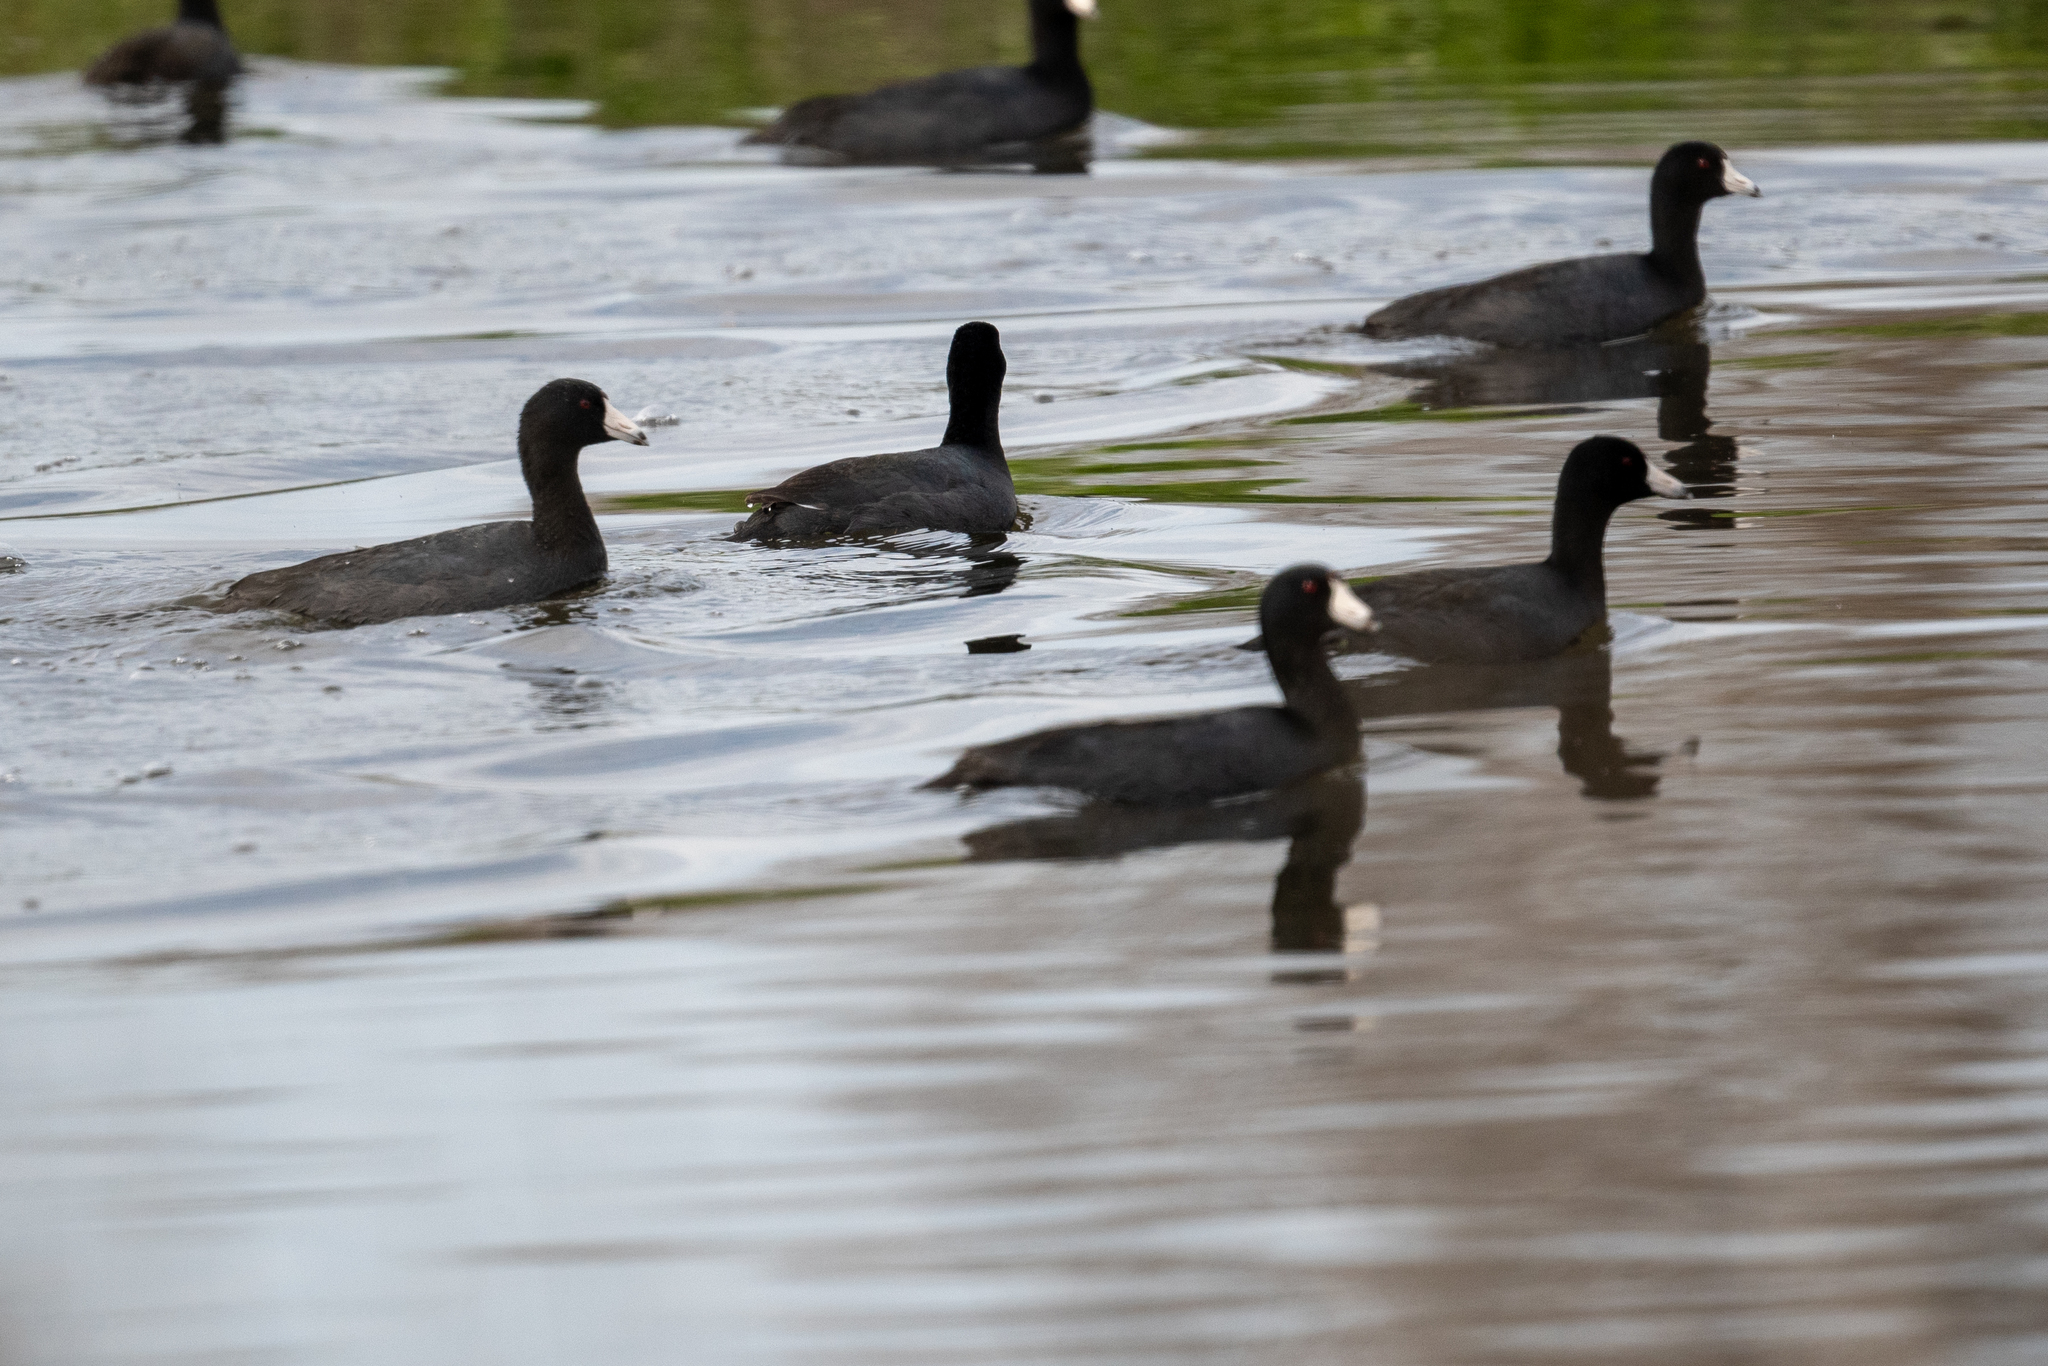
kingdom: Animalia
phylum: Chordata
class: Aves
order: Gruiformes
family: Rallidae
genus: Fulica
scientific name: Fulica americana
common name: American coot
